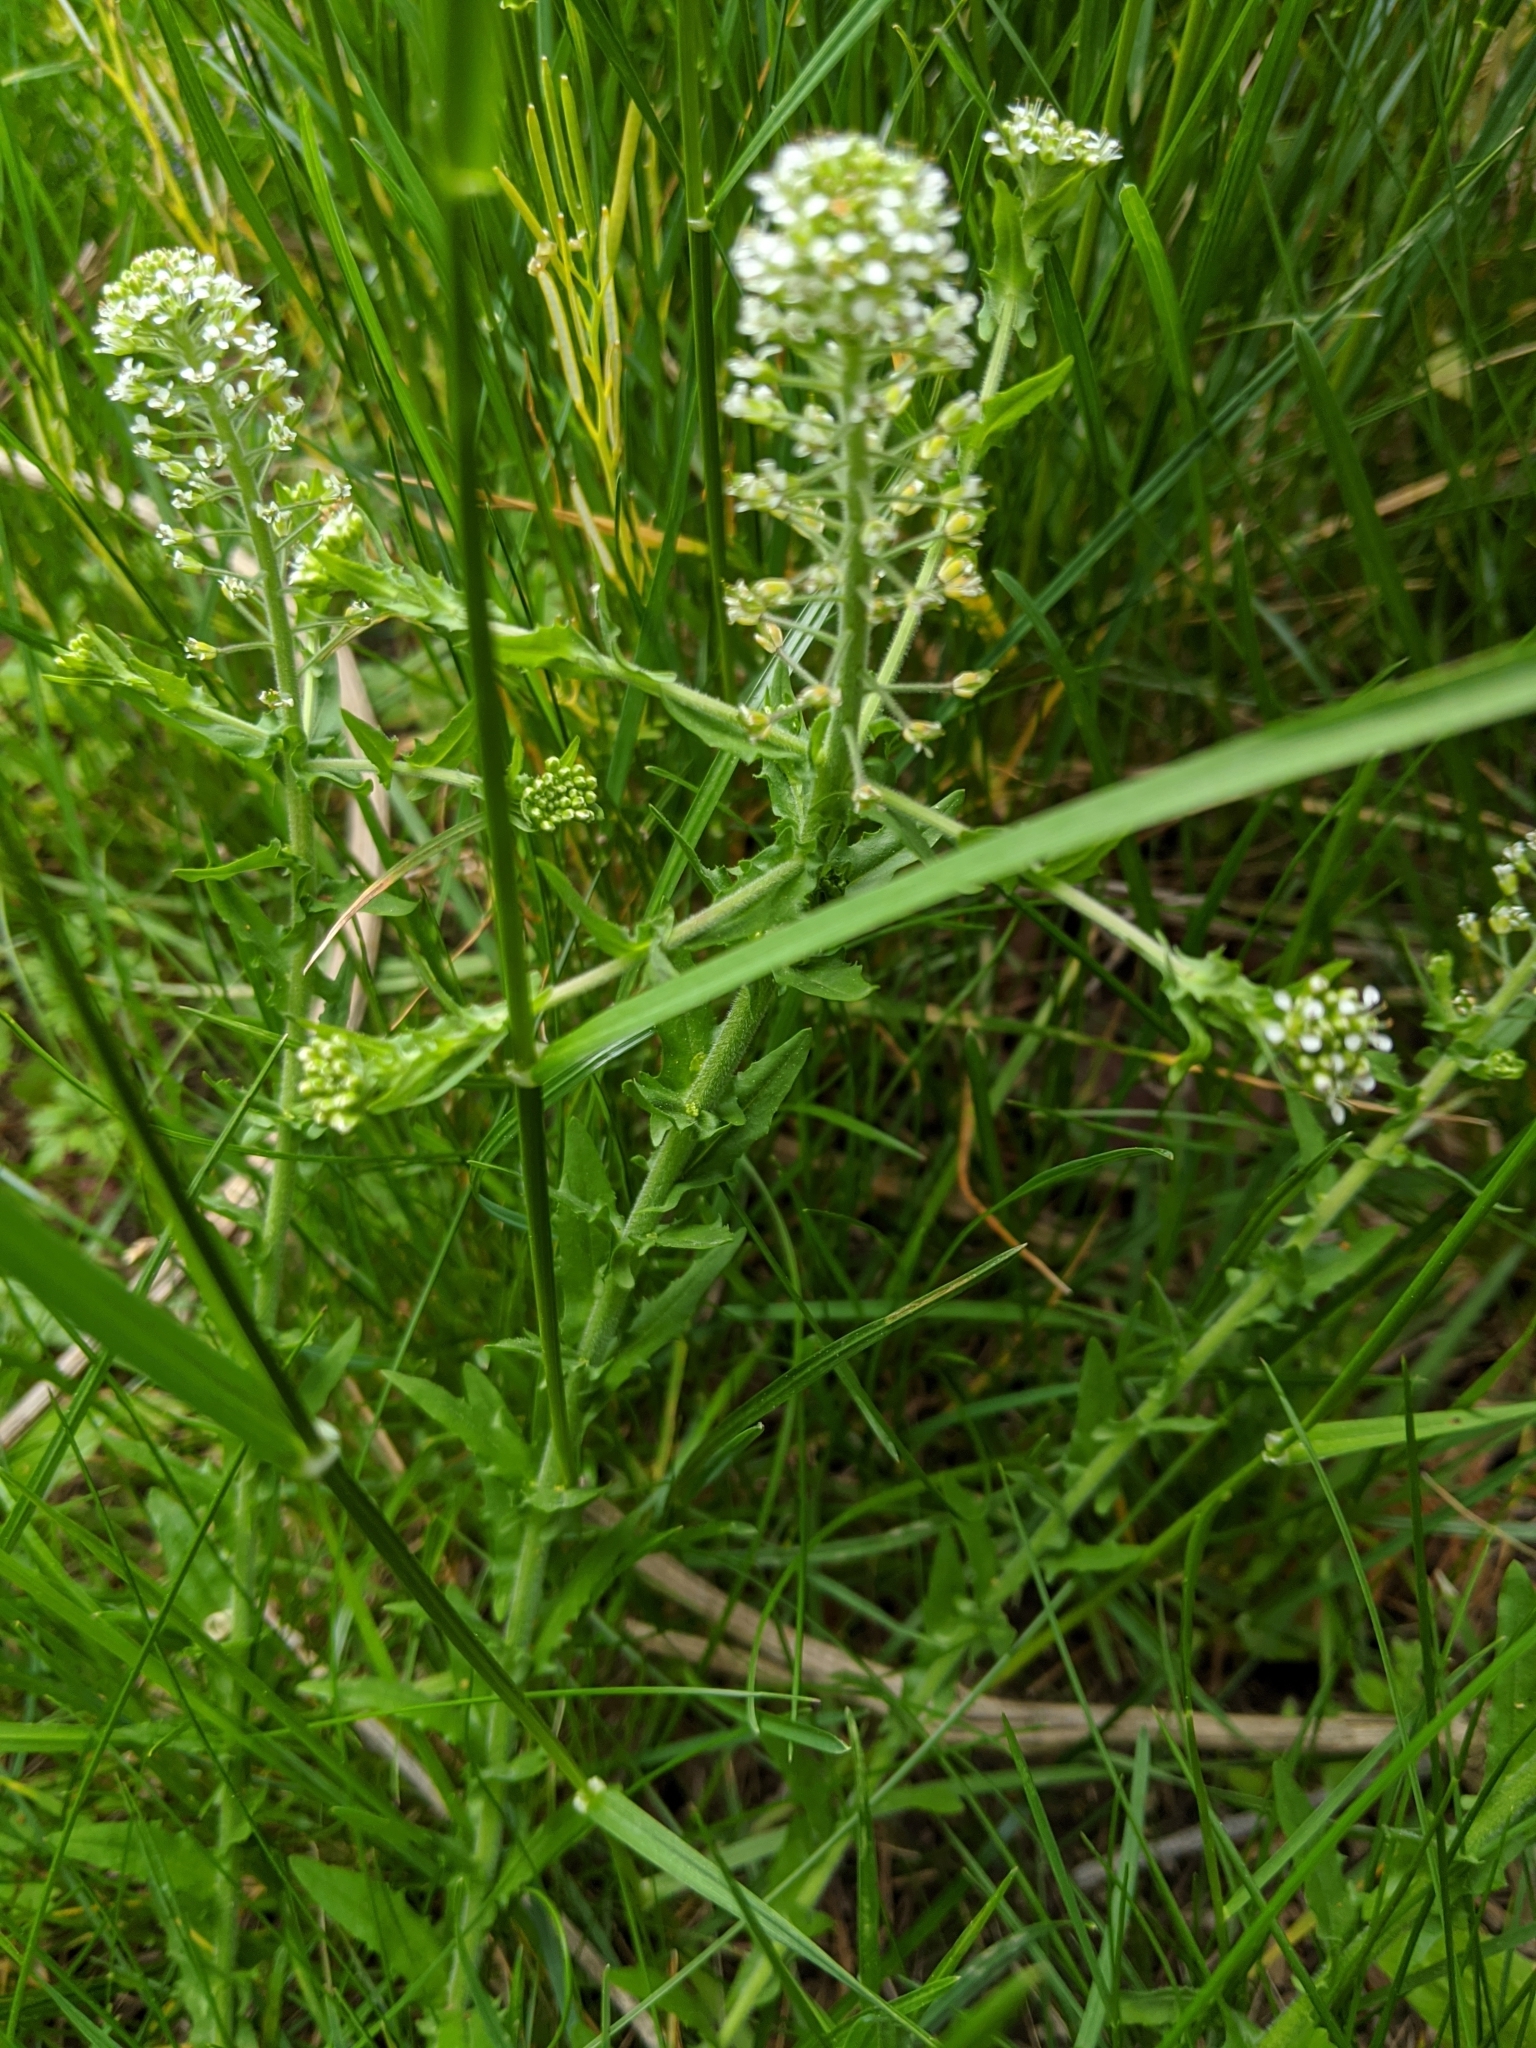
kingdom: Plantae
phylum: Tracheophyta
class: Magnoliopsida
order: Brassicales
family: Brassicaceae
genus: Lepidium
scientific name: Lepidium campestre
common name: Field pepperwort
